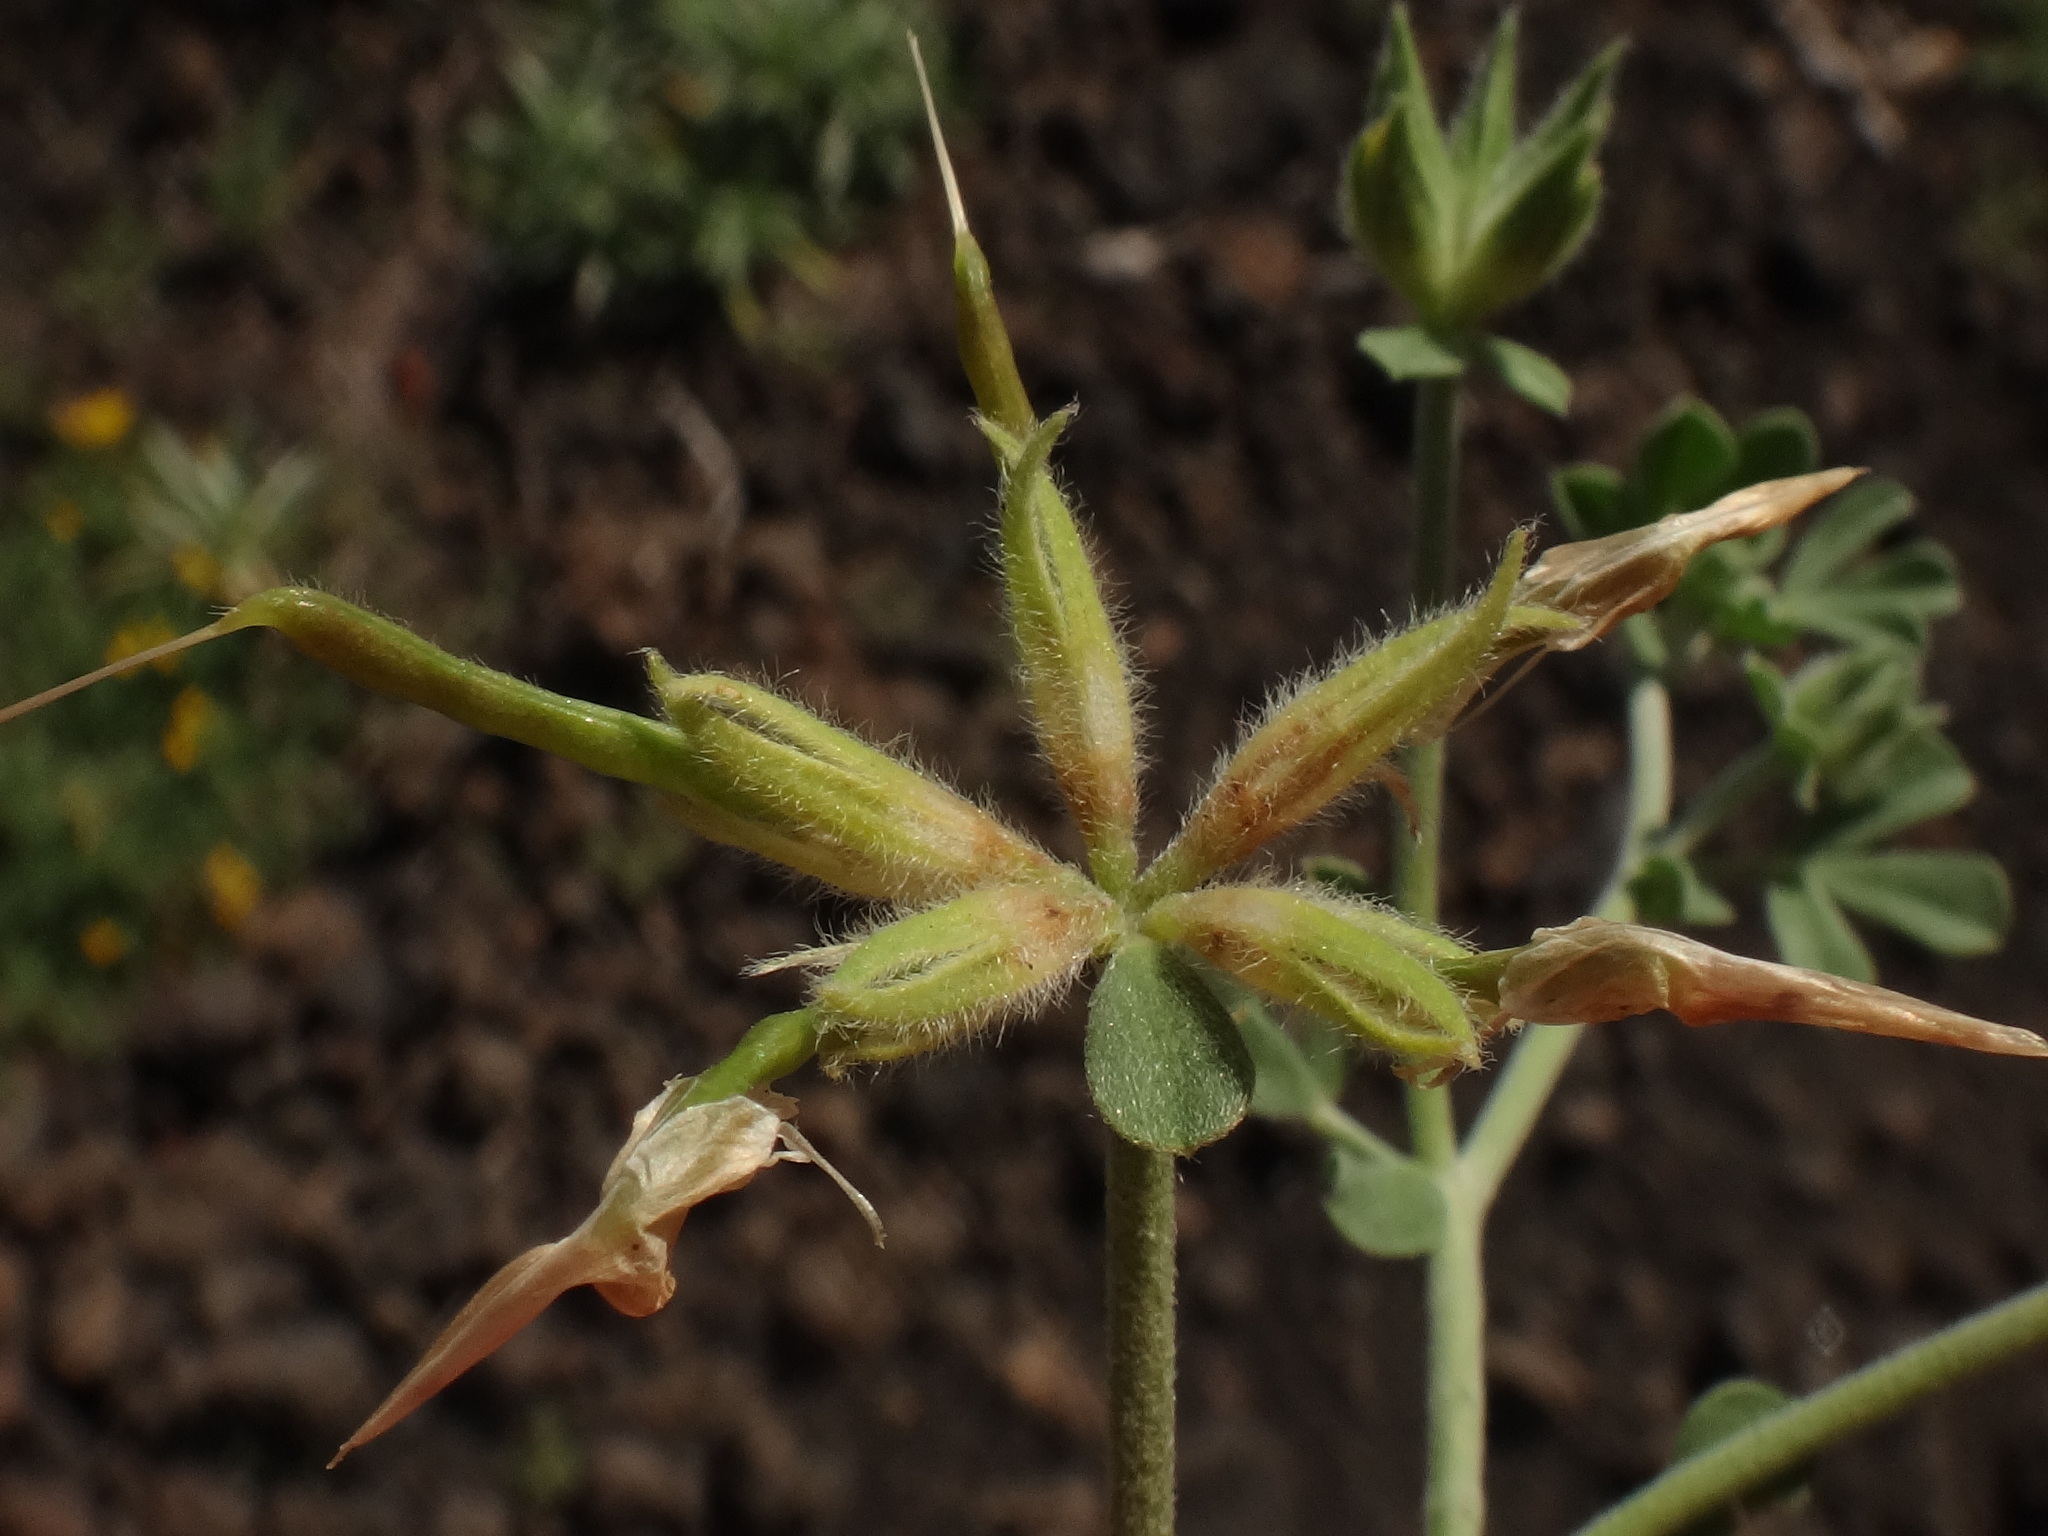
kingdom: Plantae
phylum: Tracheophyta
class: Magnoliopsida
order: Fabales
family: Fabaceae
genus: Lotus
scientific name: Lotus campylocladus
